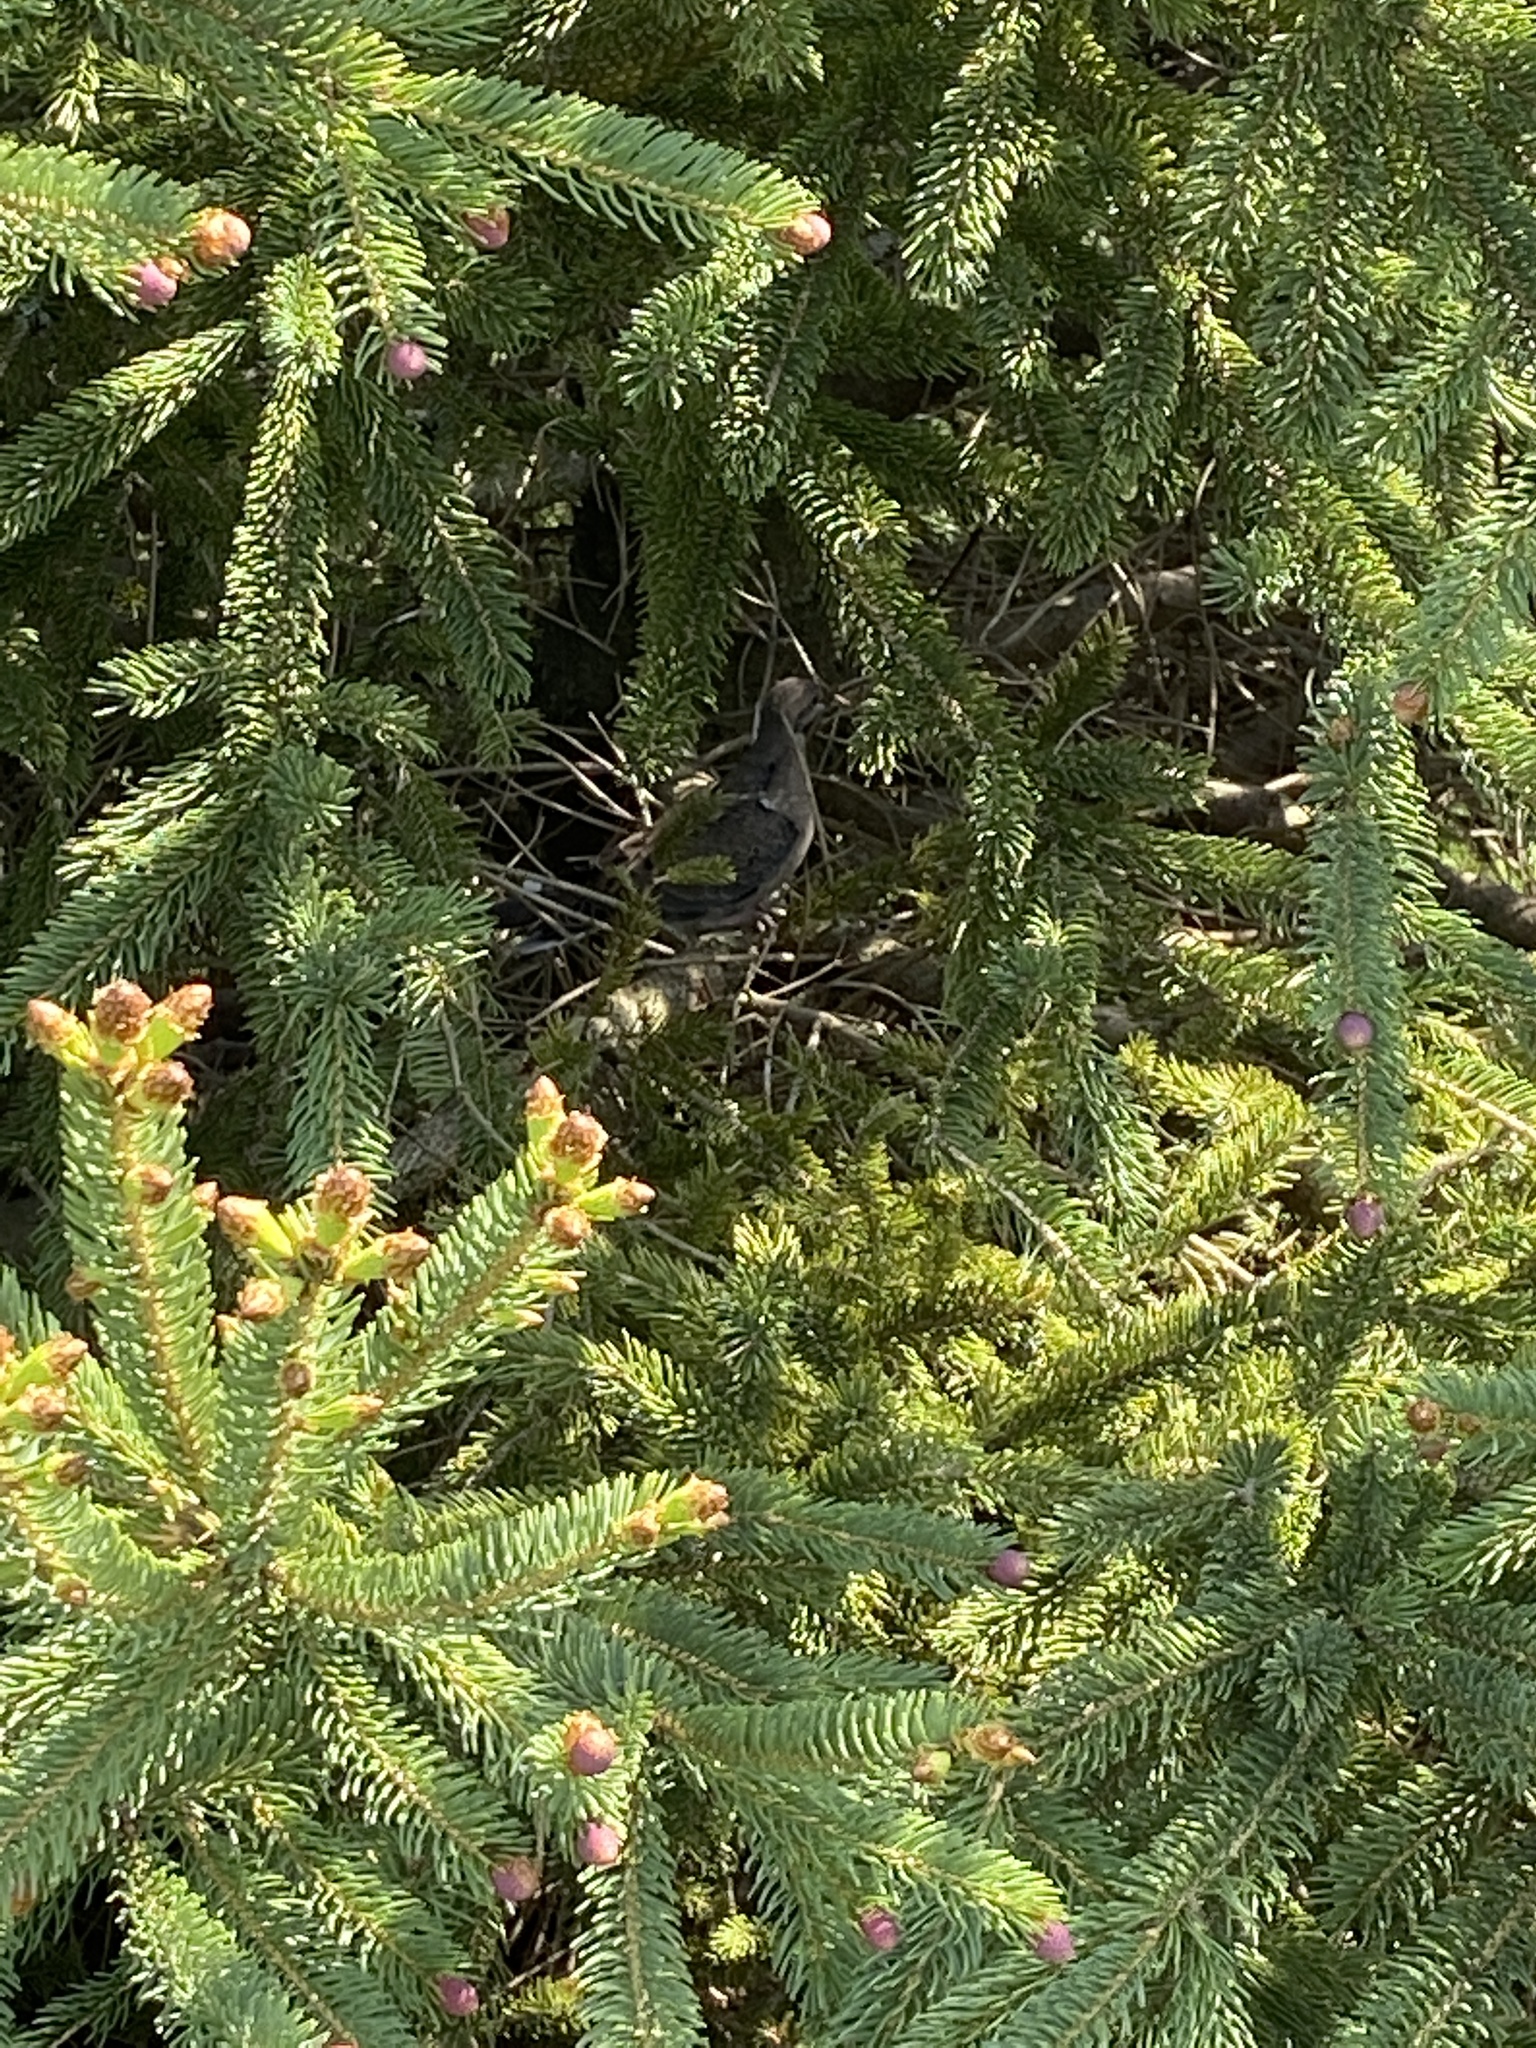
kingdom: Animalia
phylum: Chordata
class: Aves
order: Columbiformes
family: Columbidae
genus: Zenaida
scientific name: Zenaida macroura
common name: Mourning dove
